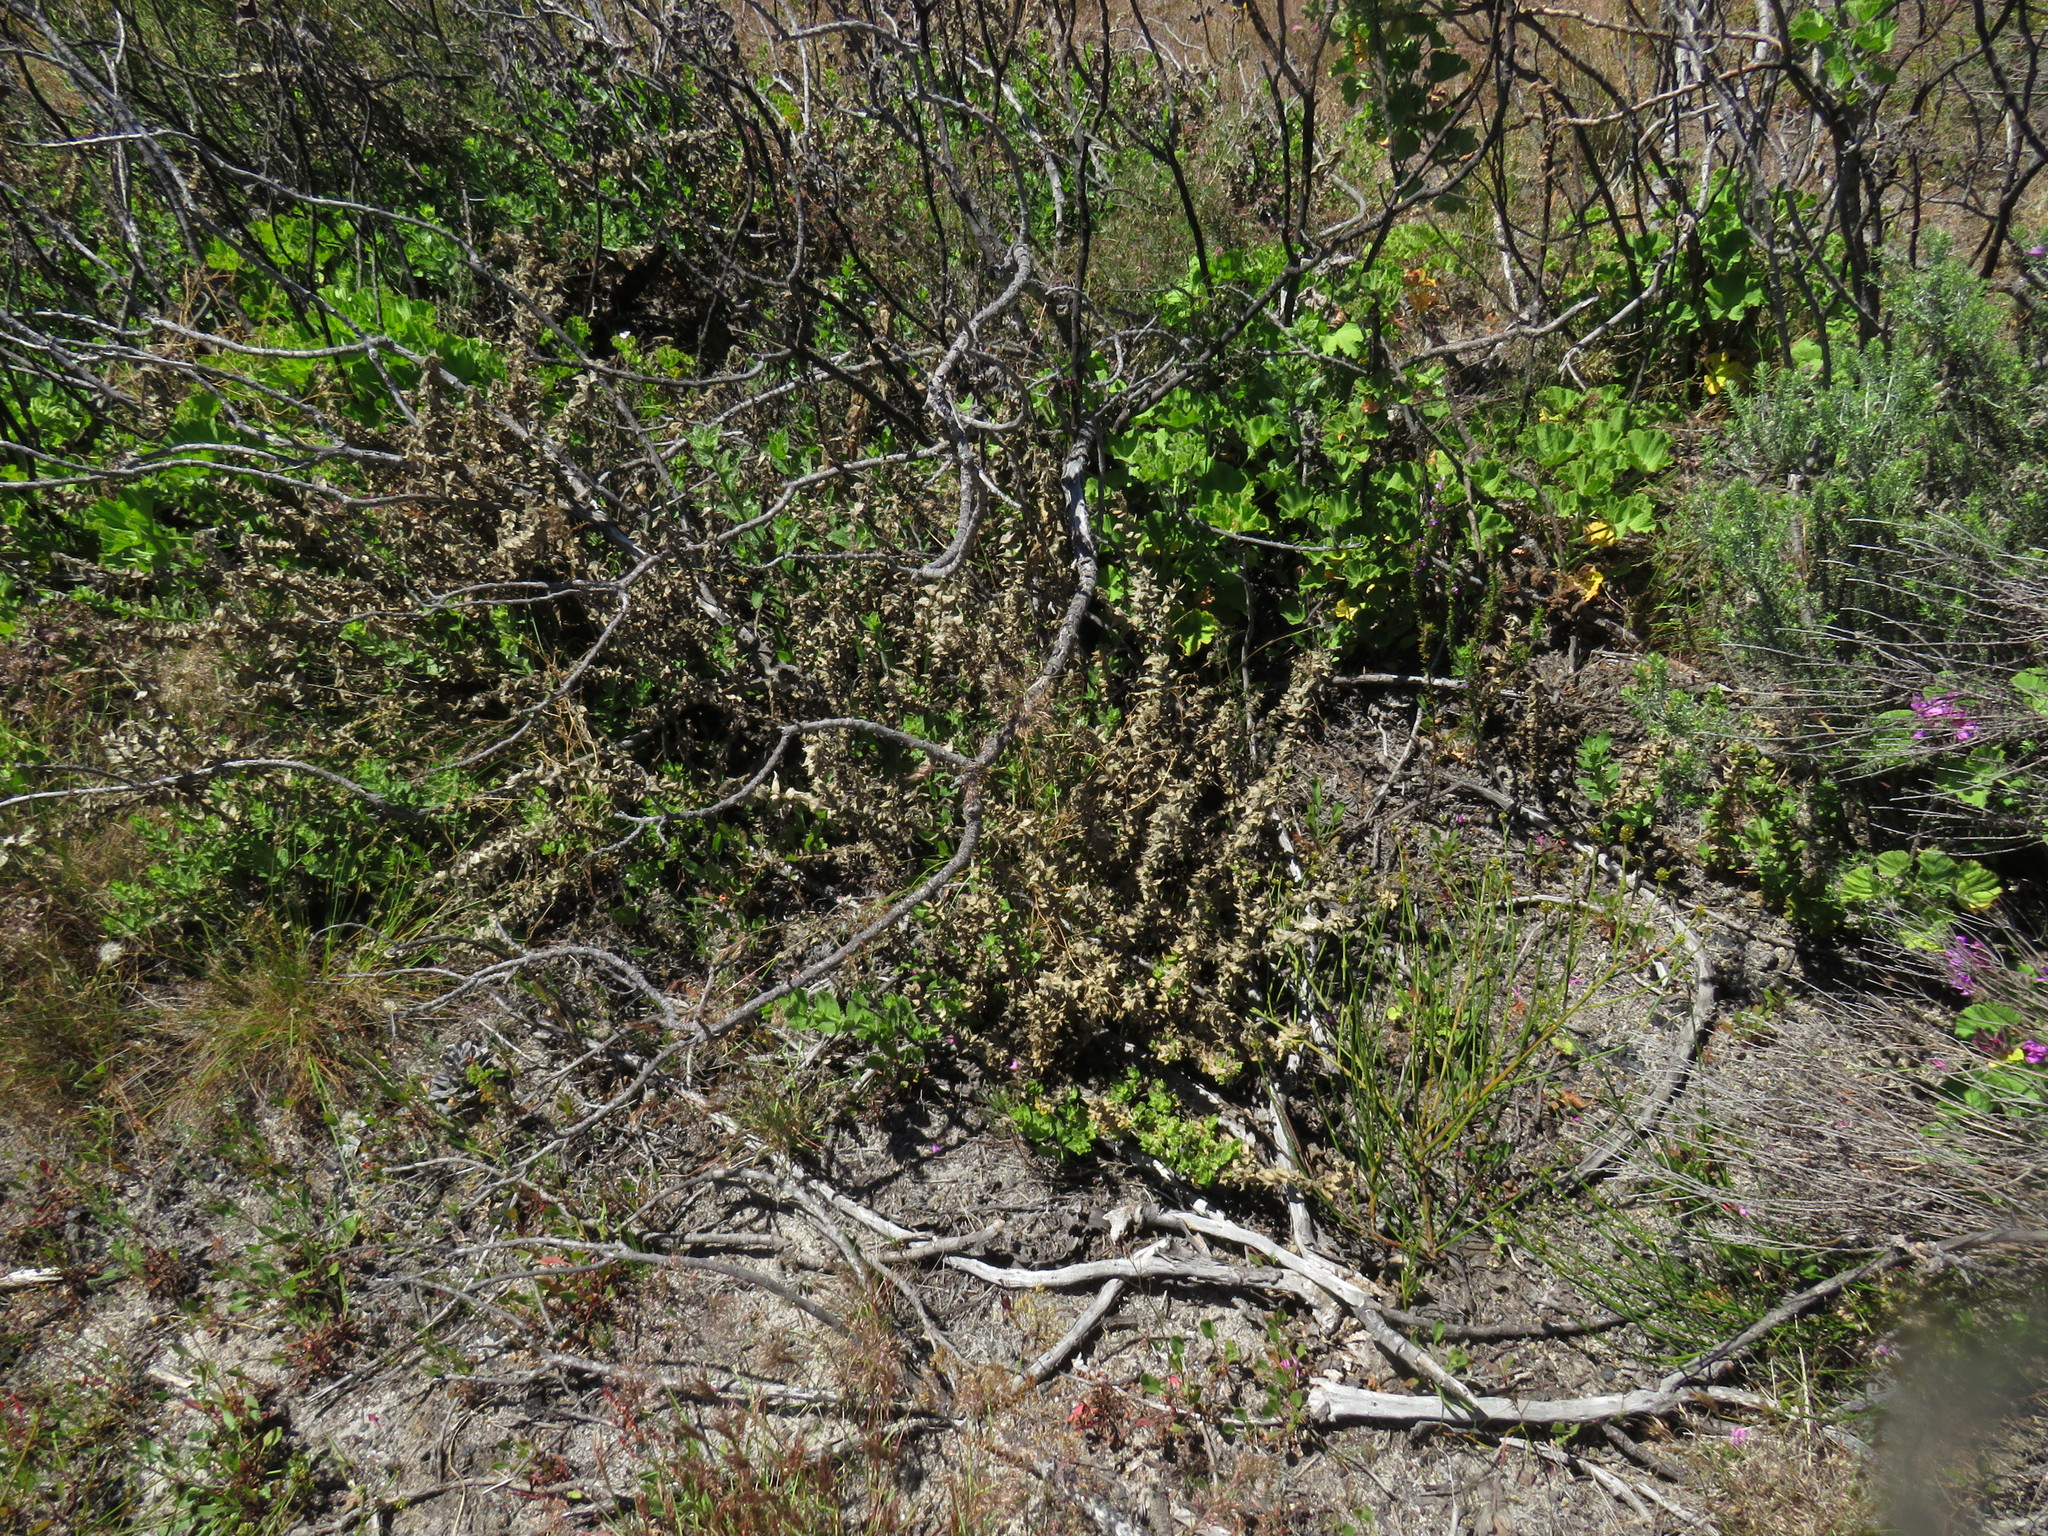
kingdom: Plantae
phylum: Tracheophyta
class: Magnoliopsida
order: Lamiales
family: Scrophulariaceae
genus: Oftia
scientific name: Oftia africana
